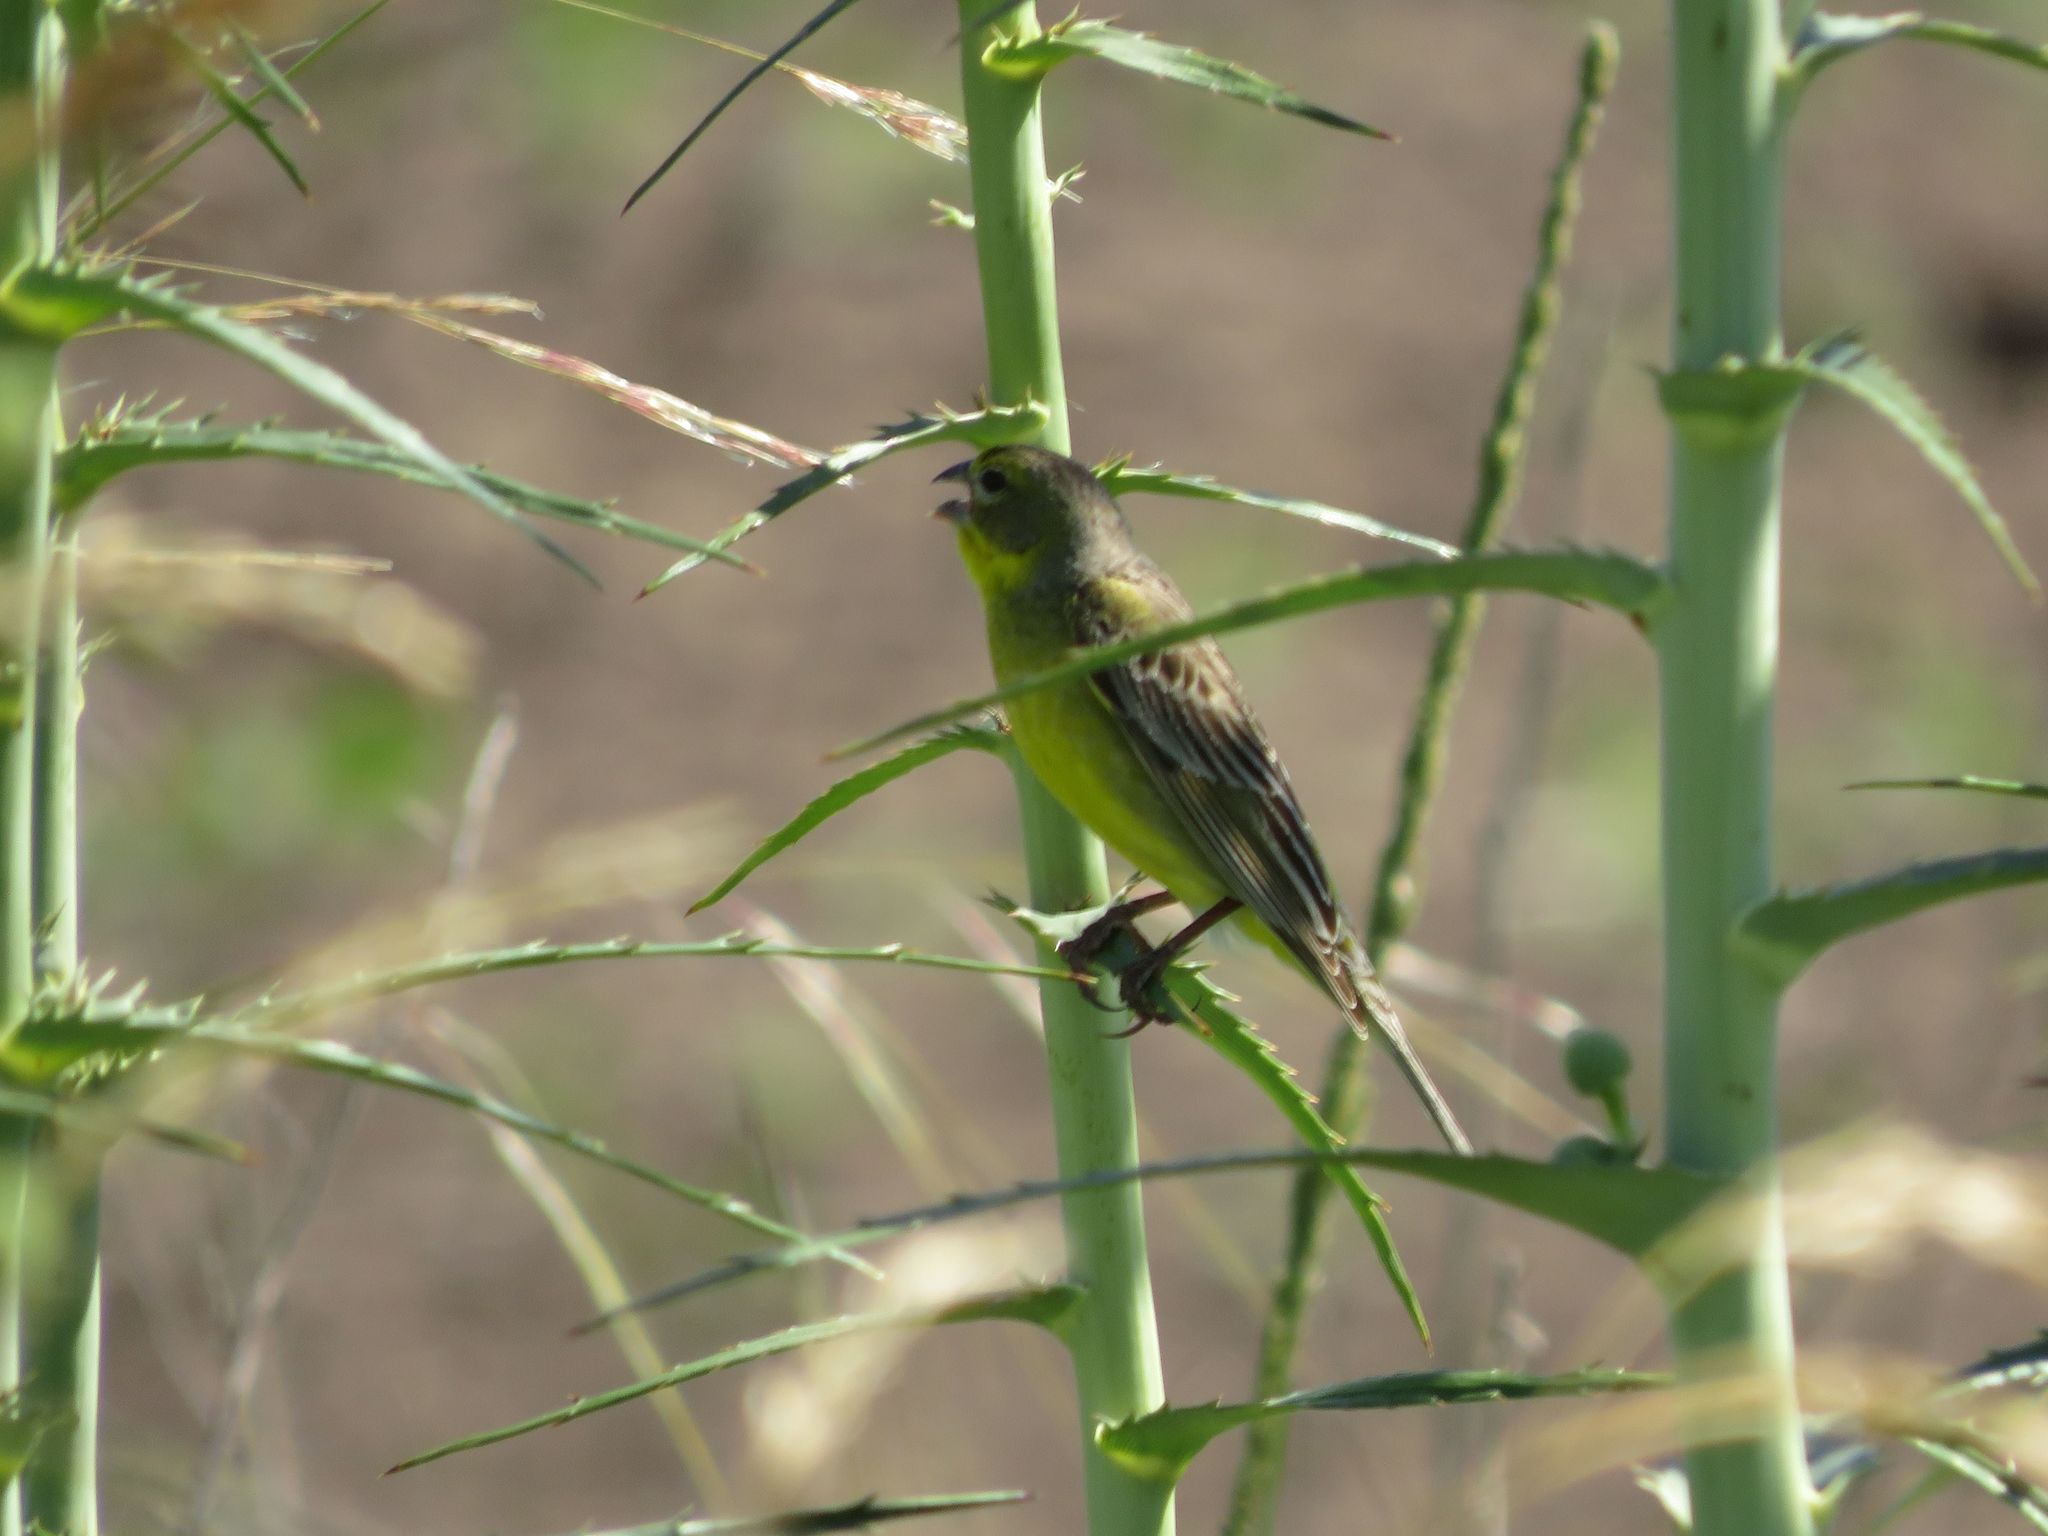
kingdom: Animalia
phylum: Chordata
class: Aves
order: Passeriformes
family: Thraupidae
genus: Sicalis
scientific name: Sicalis luteola
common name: Grassland yellow-finch
